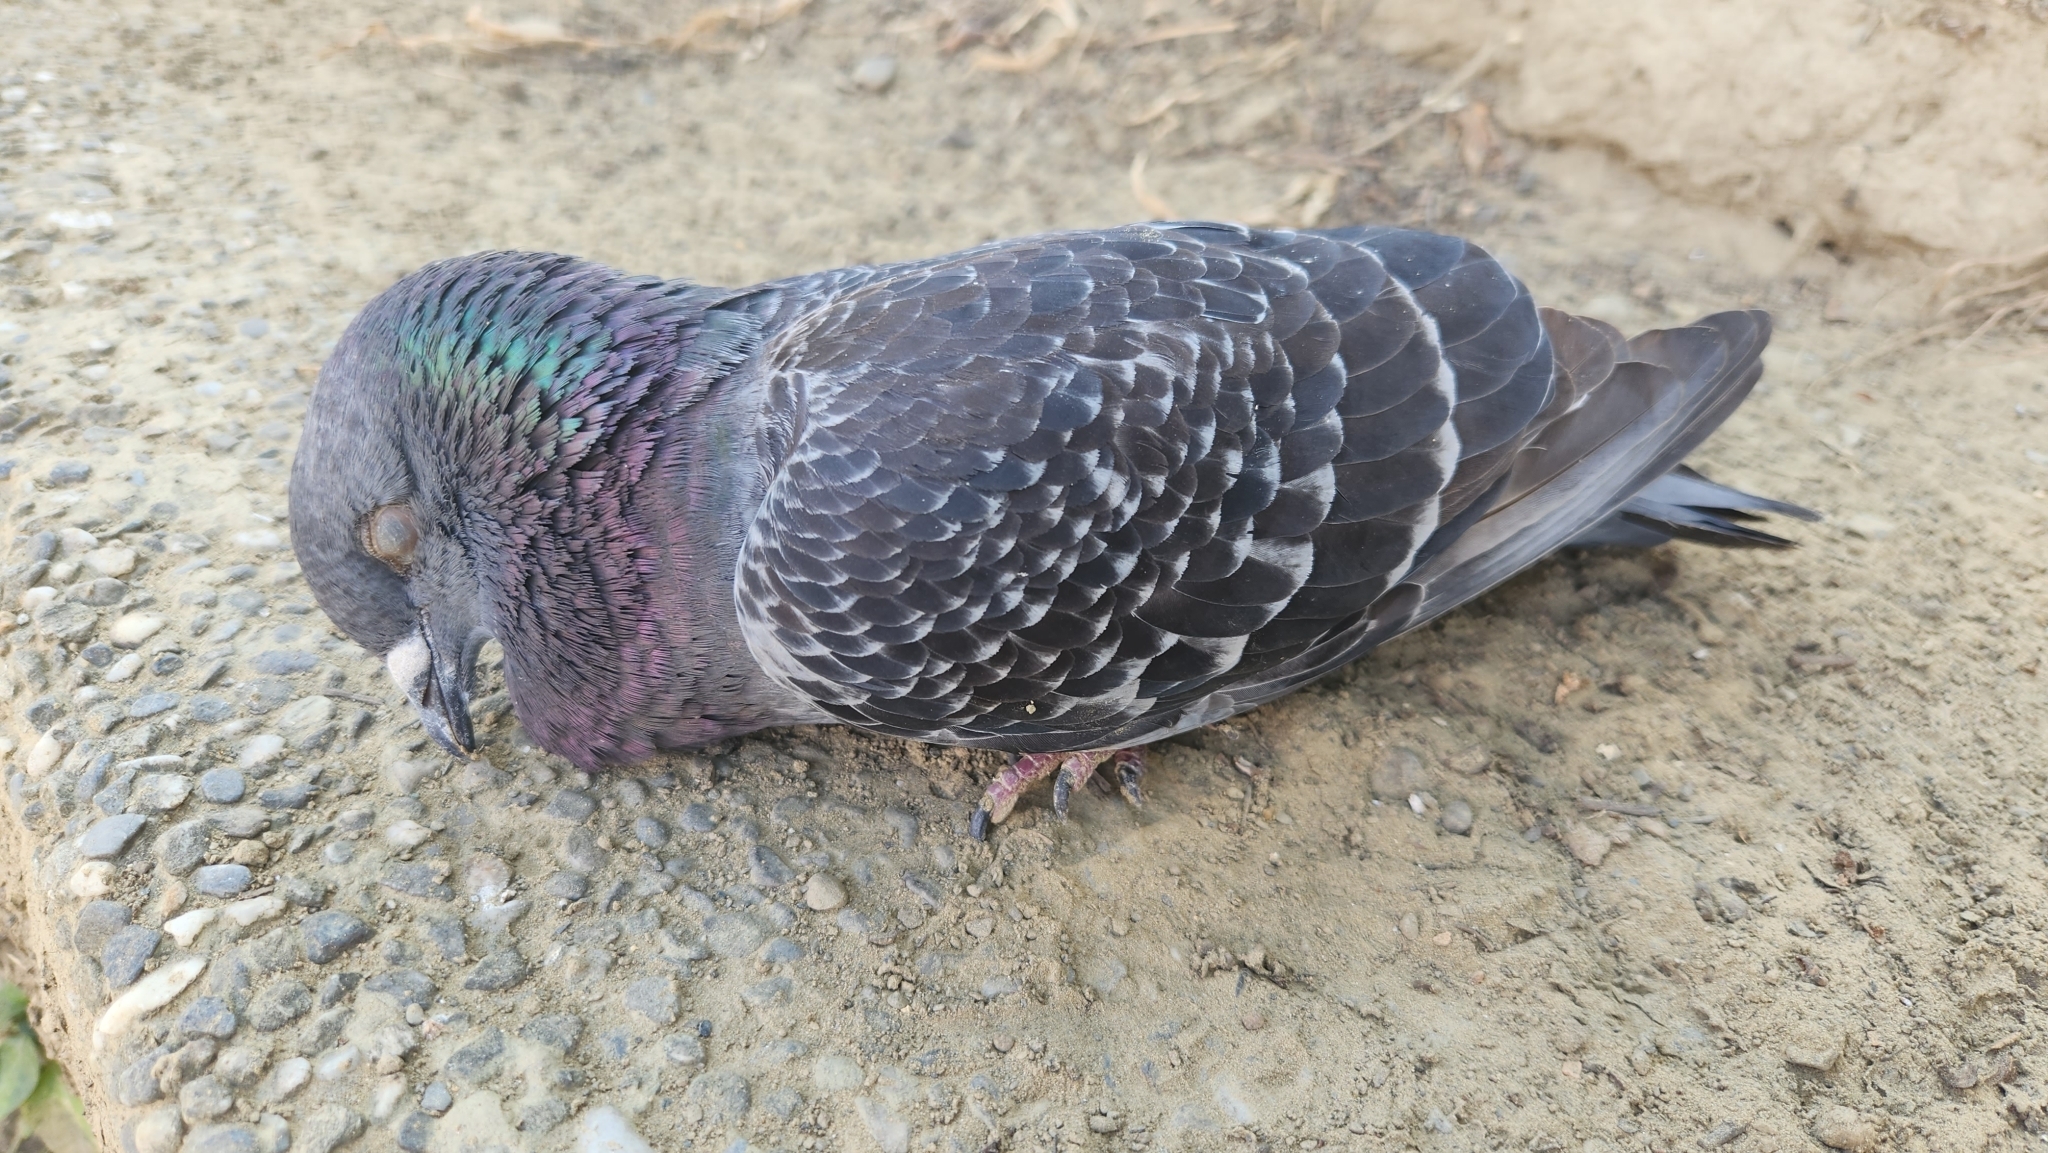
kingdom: Animalia
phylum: Chordata
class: Aves
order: Columbiformes
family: Columbidae
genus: Columba
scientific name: Columba livia
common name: Rock pigeon
